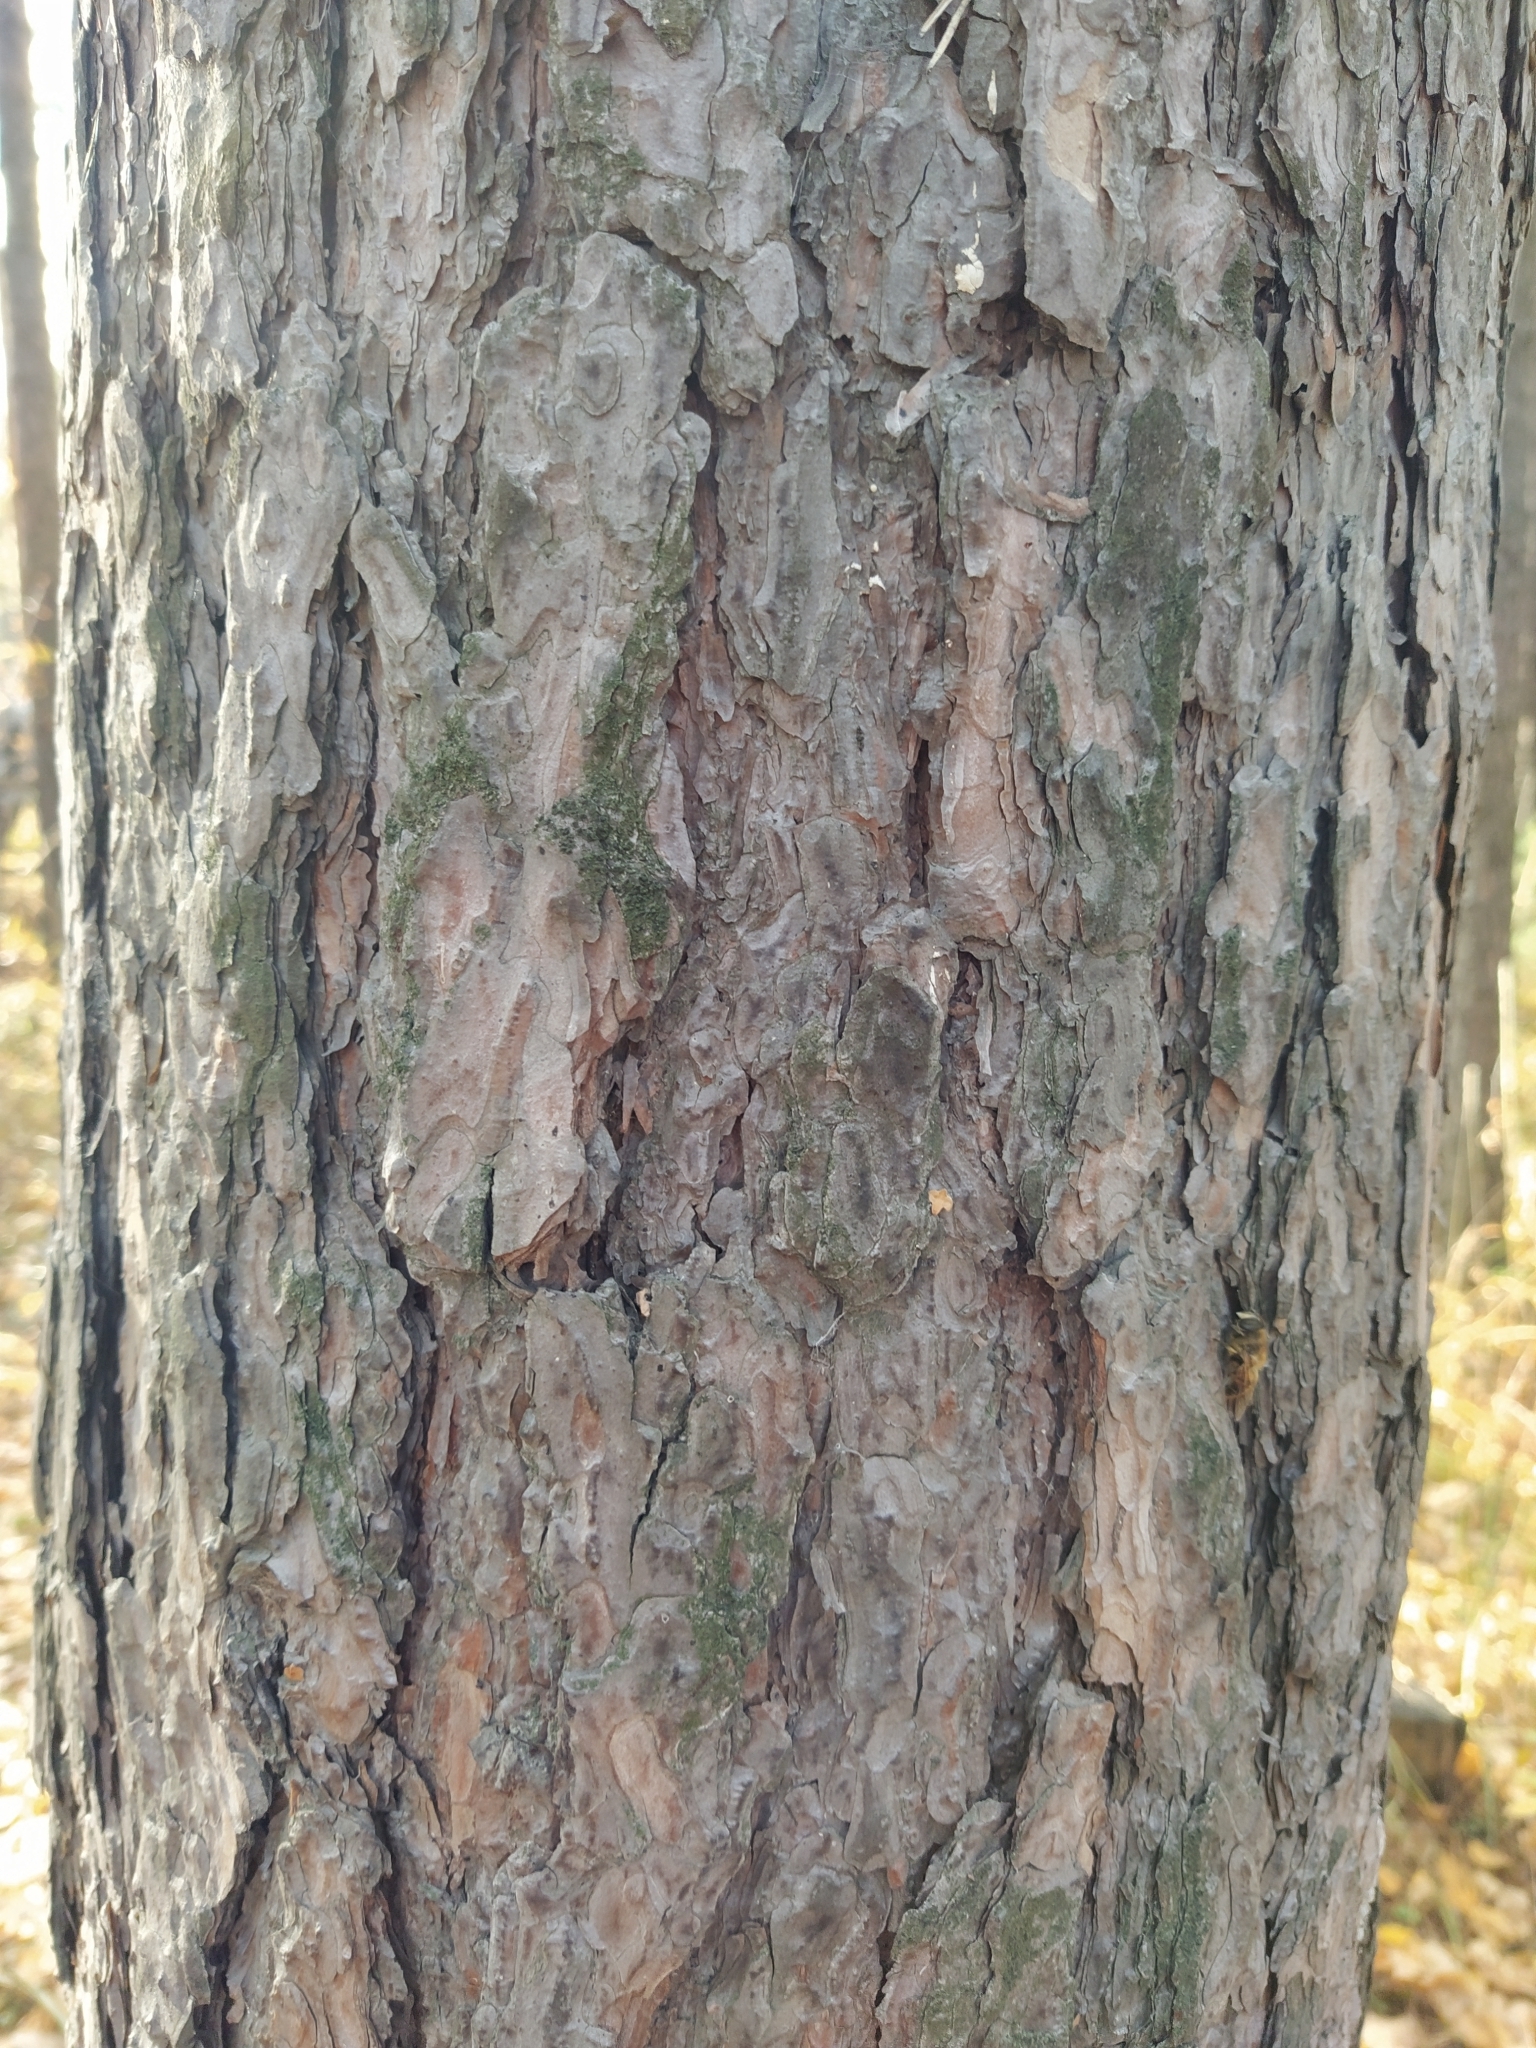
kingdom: Plantae
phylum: Tracheophyta
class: Pinopsida
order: Pinales
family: Pinaceae
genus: Pinus
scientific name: Pinus sylvestris
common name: Scots pine
